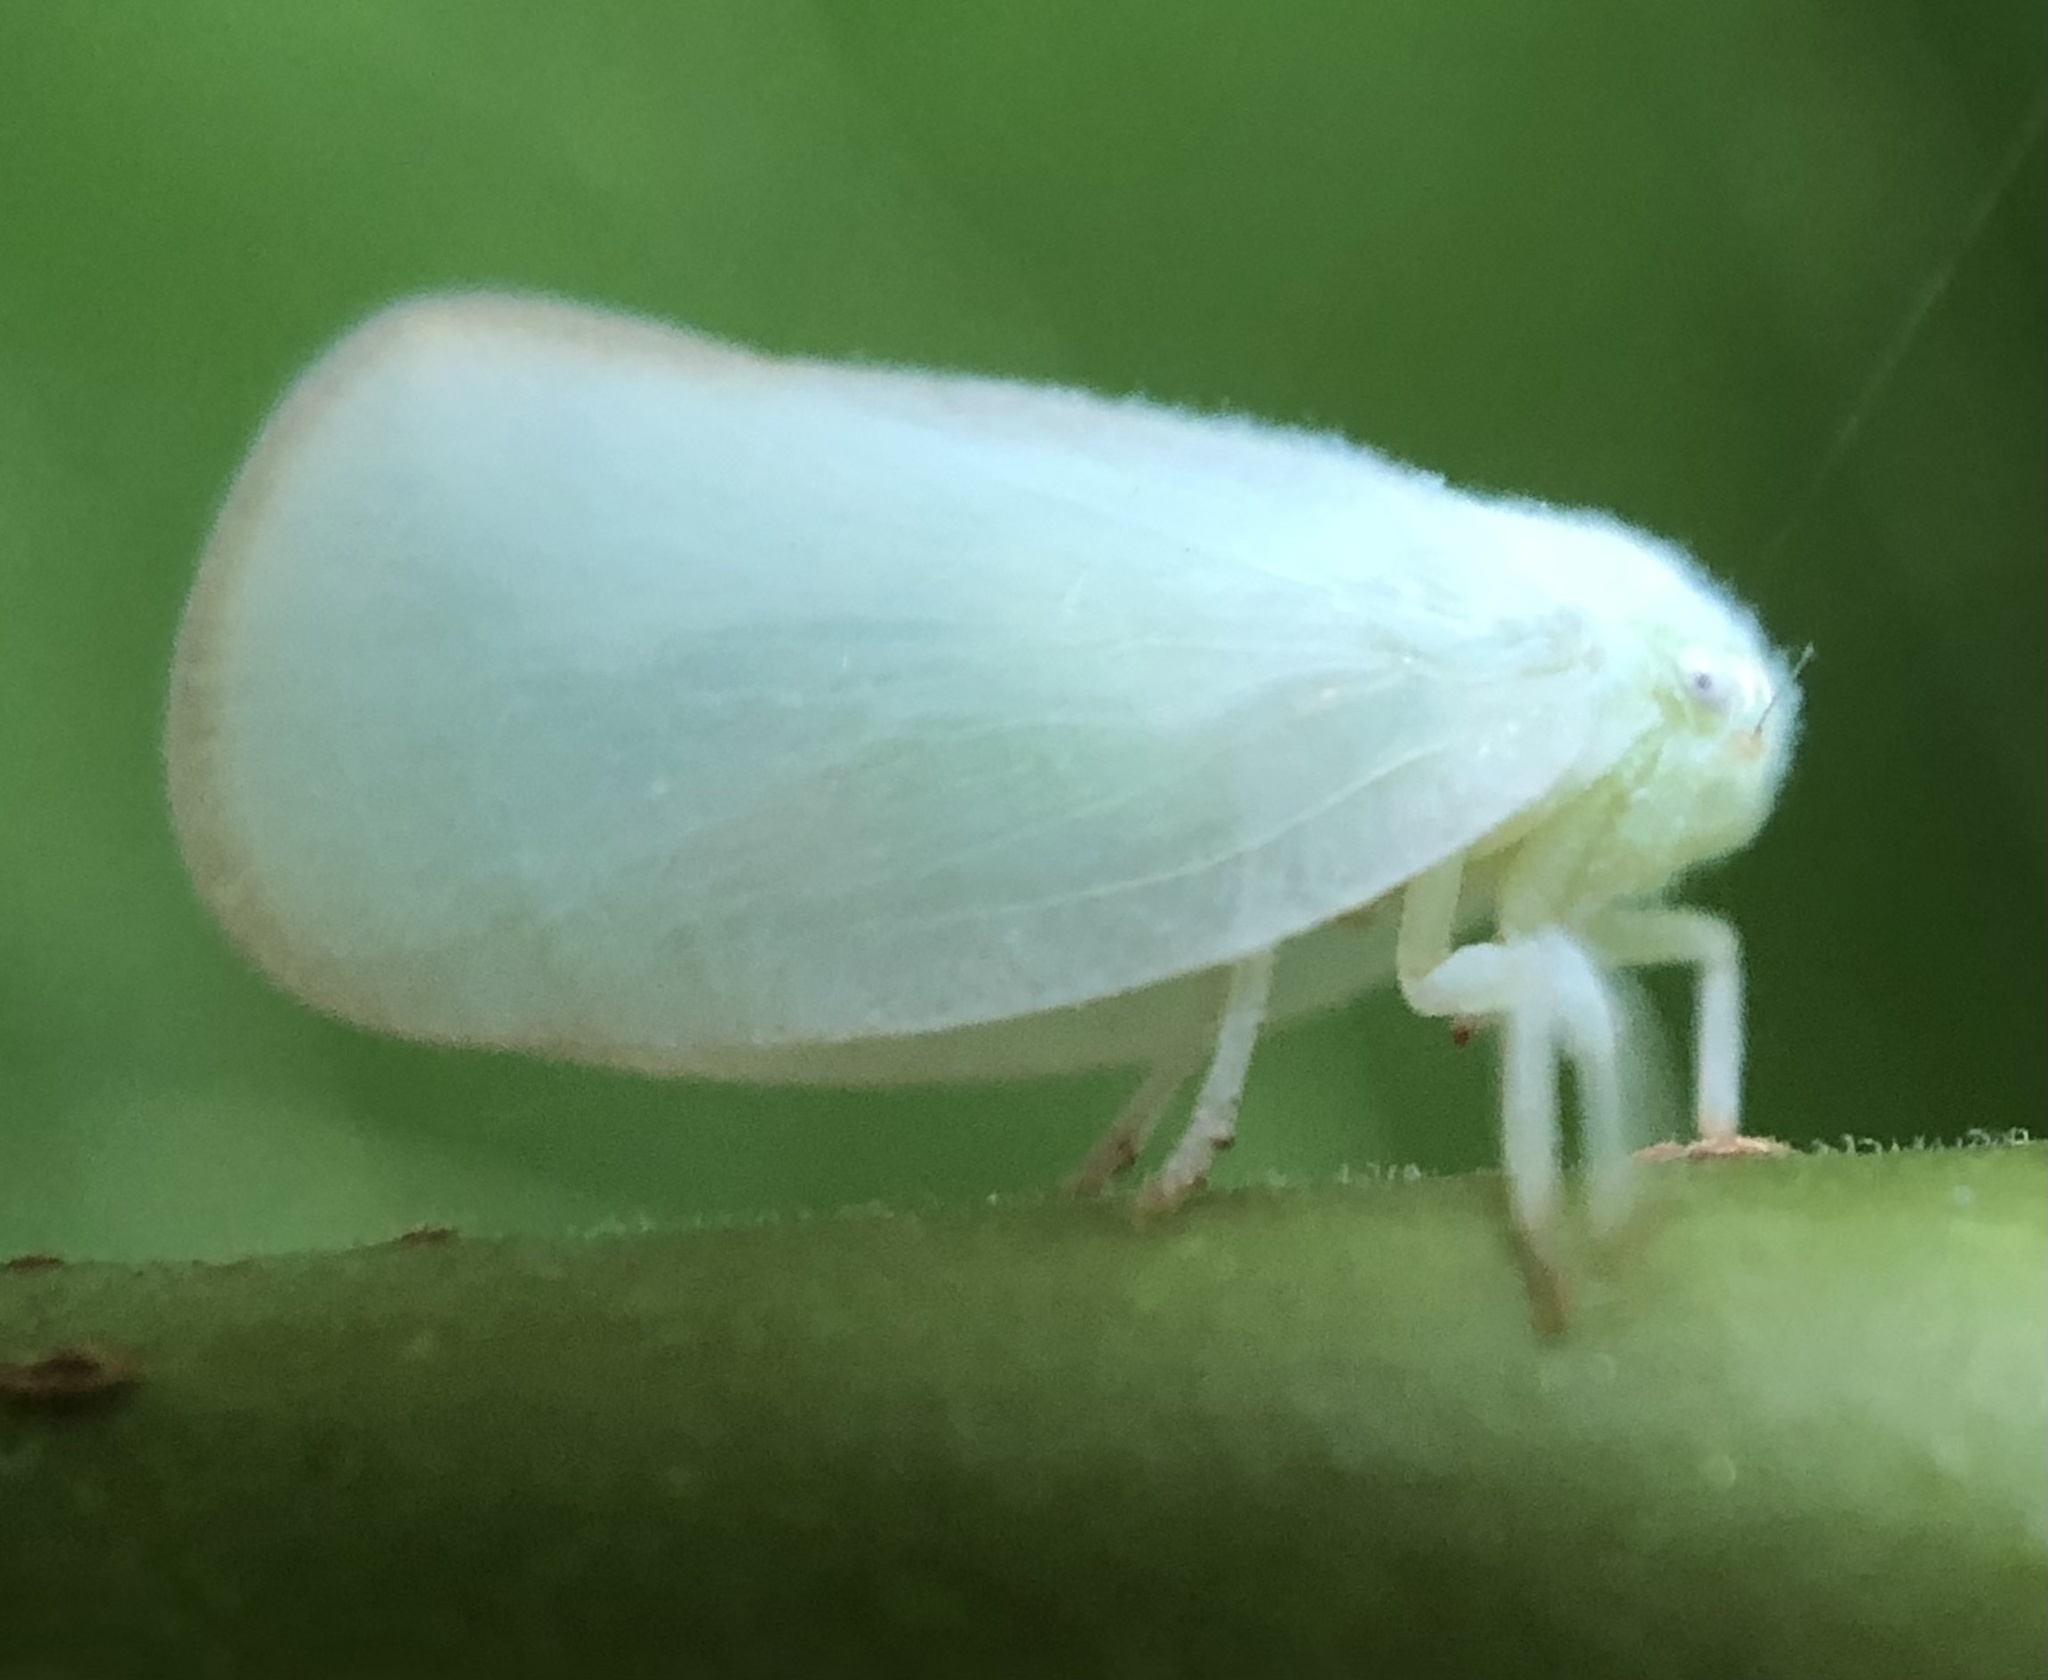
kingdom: Animalia
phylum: Arthropoda
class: Insecta
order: Hemiptera
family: Flatidae
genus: Ormenoides
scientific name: Ormenoides venusta
